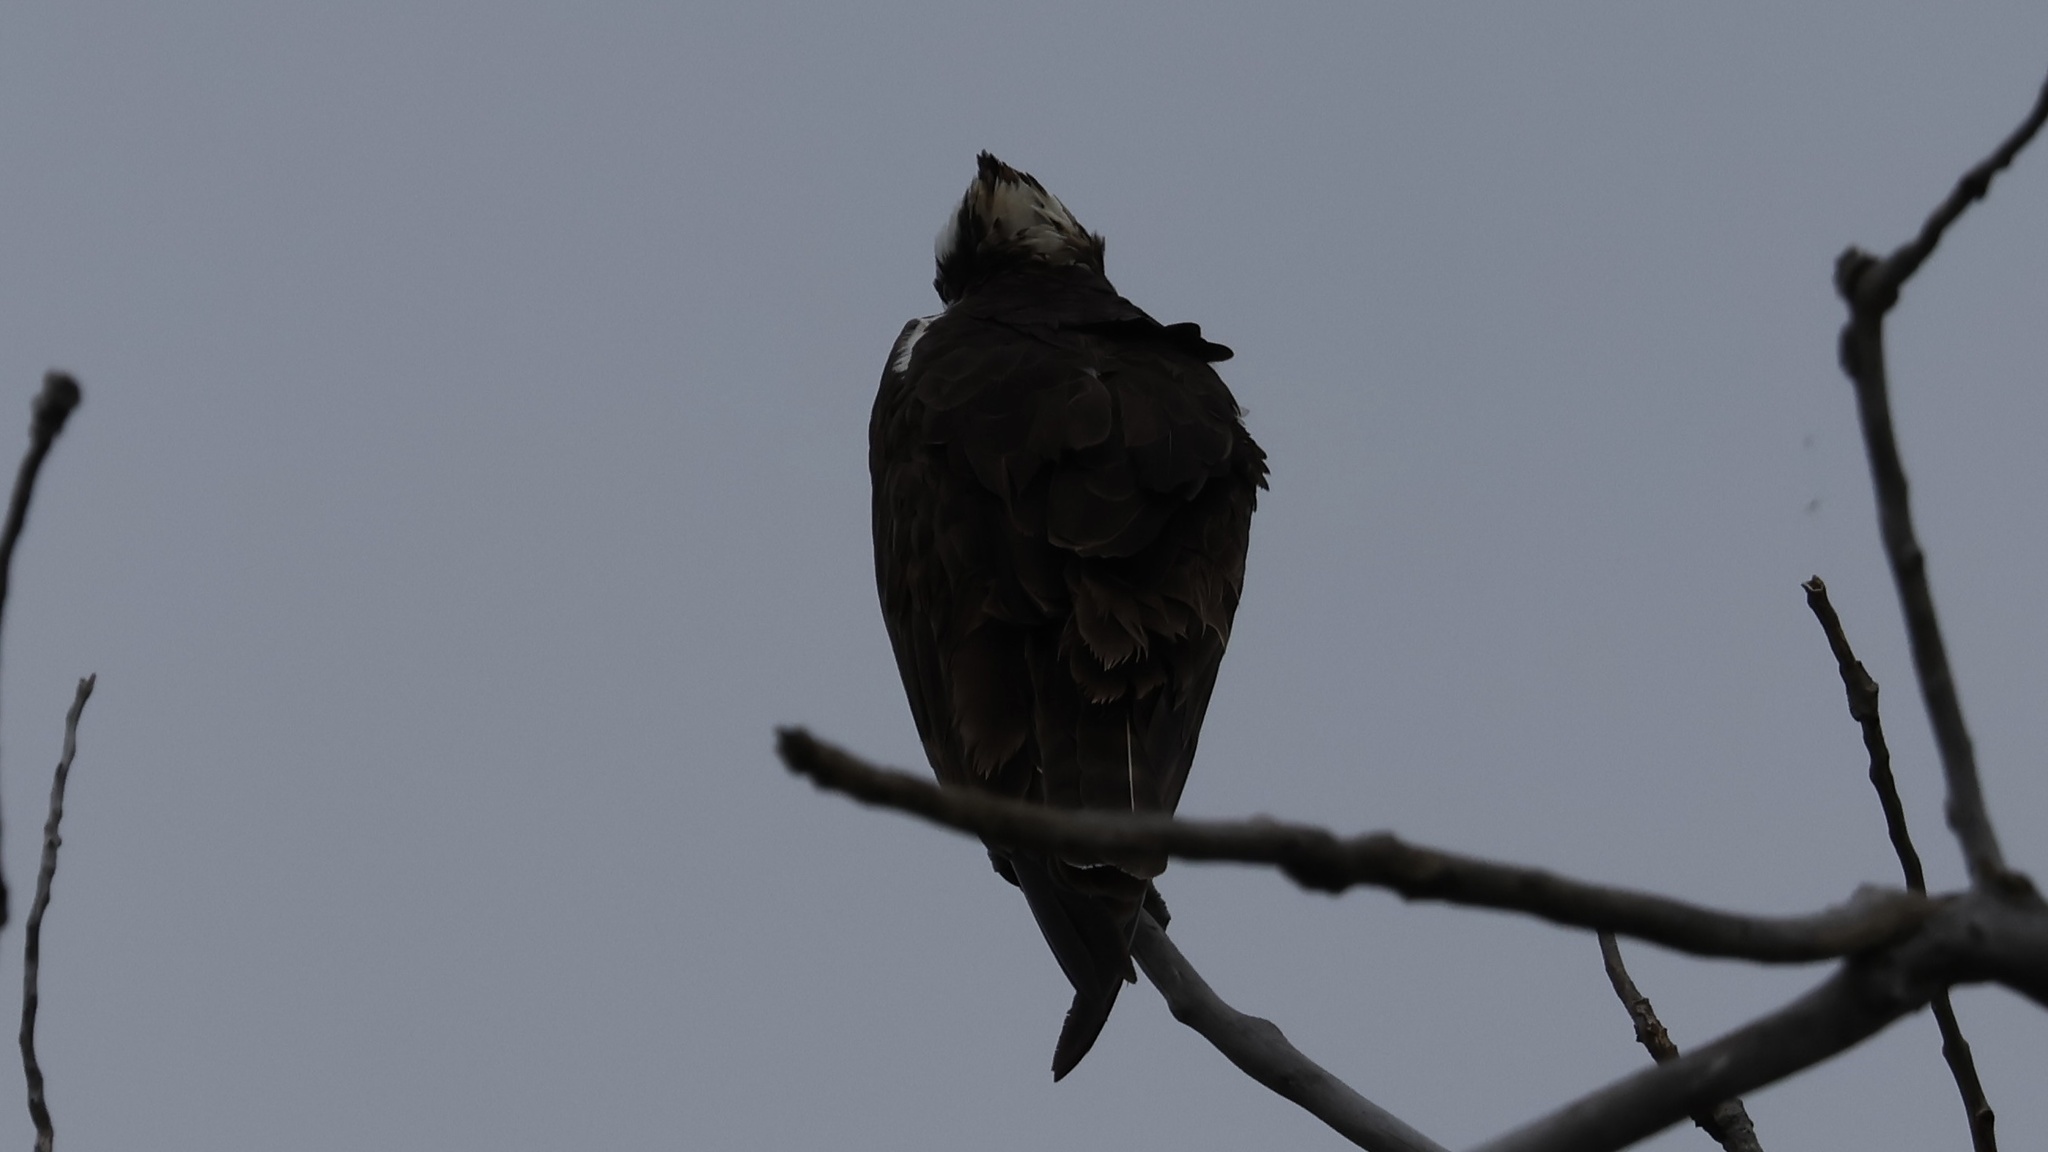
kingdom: Animalia
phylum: Chordata
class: Aves
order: Accipitriformes
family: Pandionidae
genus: Pandion
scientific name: Pandion haliaetus
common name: Osprey
